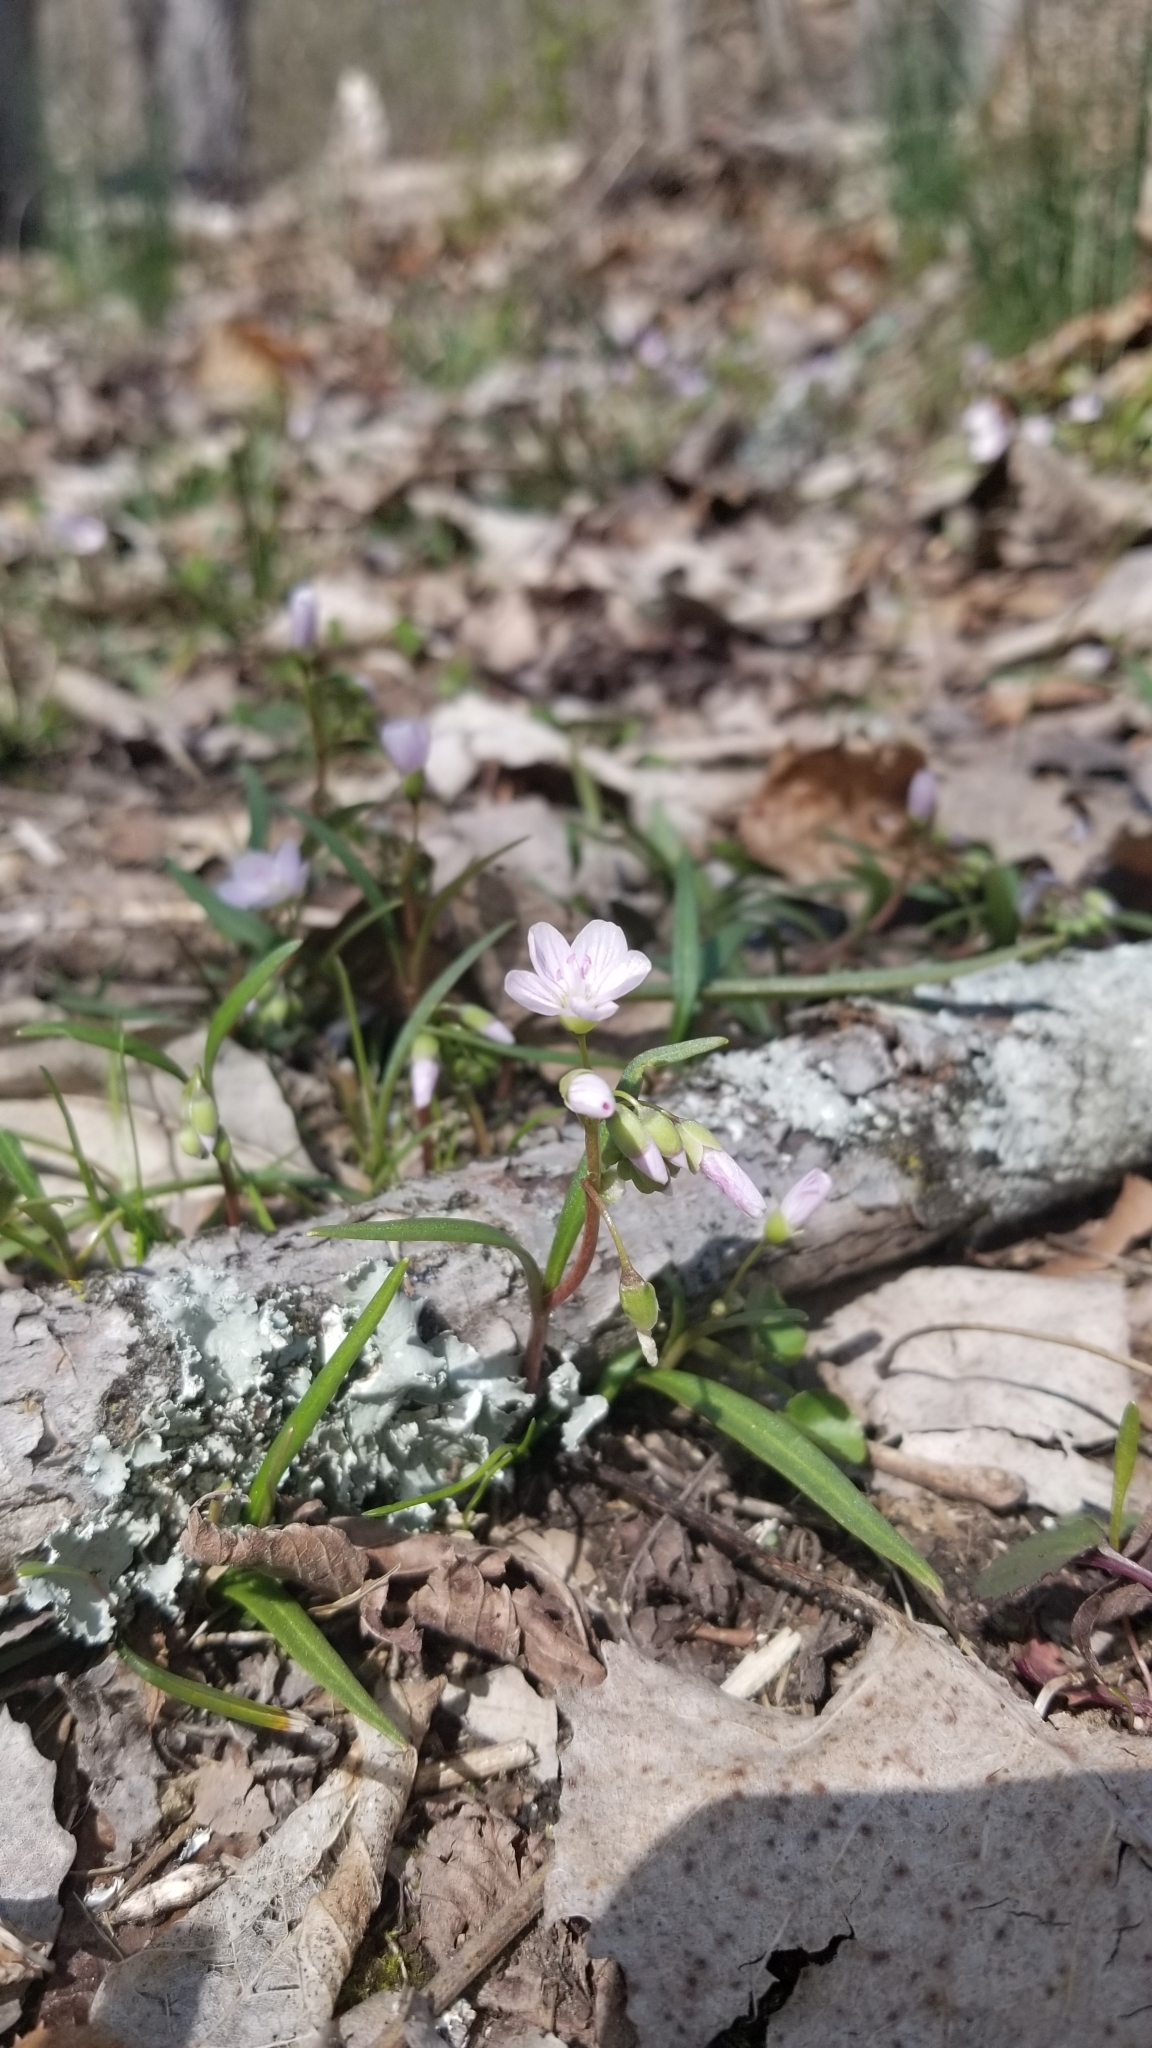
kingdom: Plantae
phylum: Tracheophyta
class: Magnoliopsida
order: Caryophyllales
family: Montiaceae
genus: Claytonia
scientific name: Claytonia virginica
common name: Virginia springbeauty
